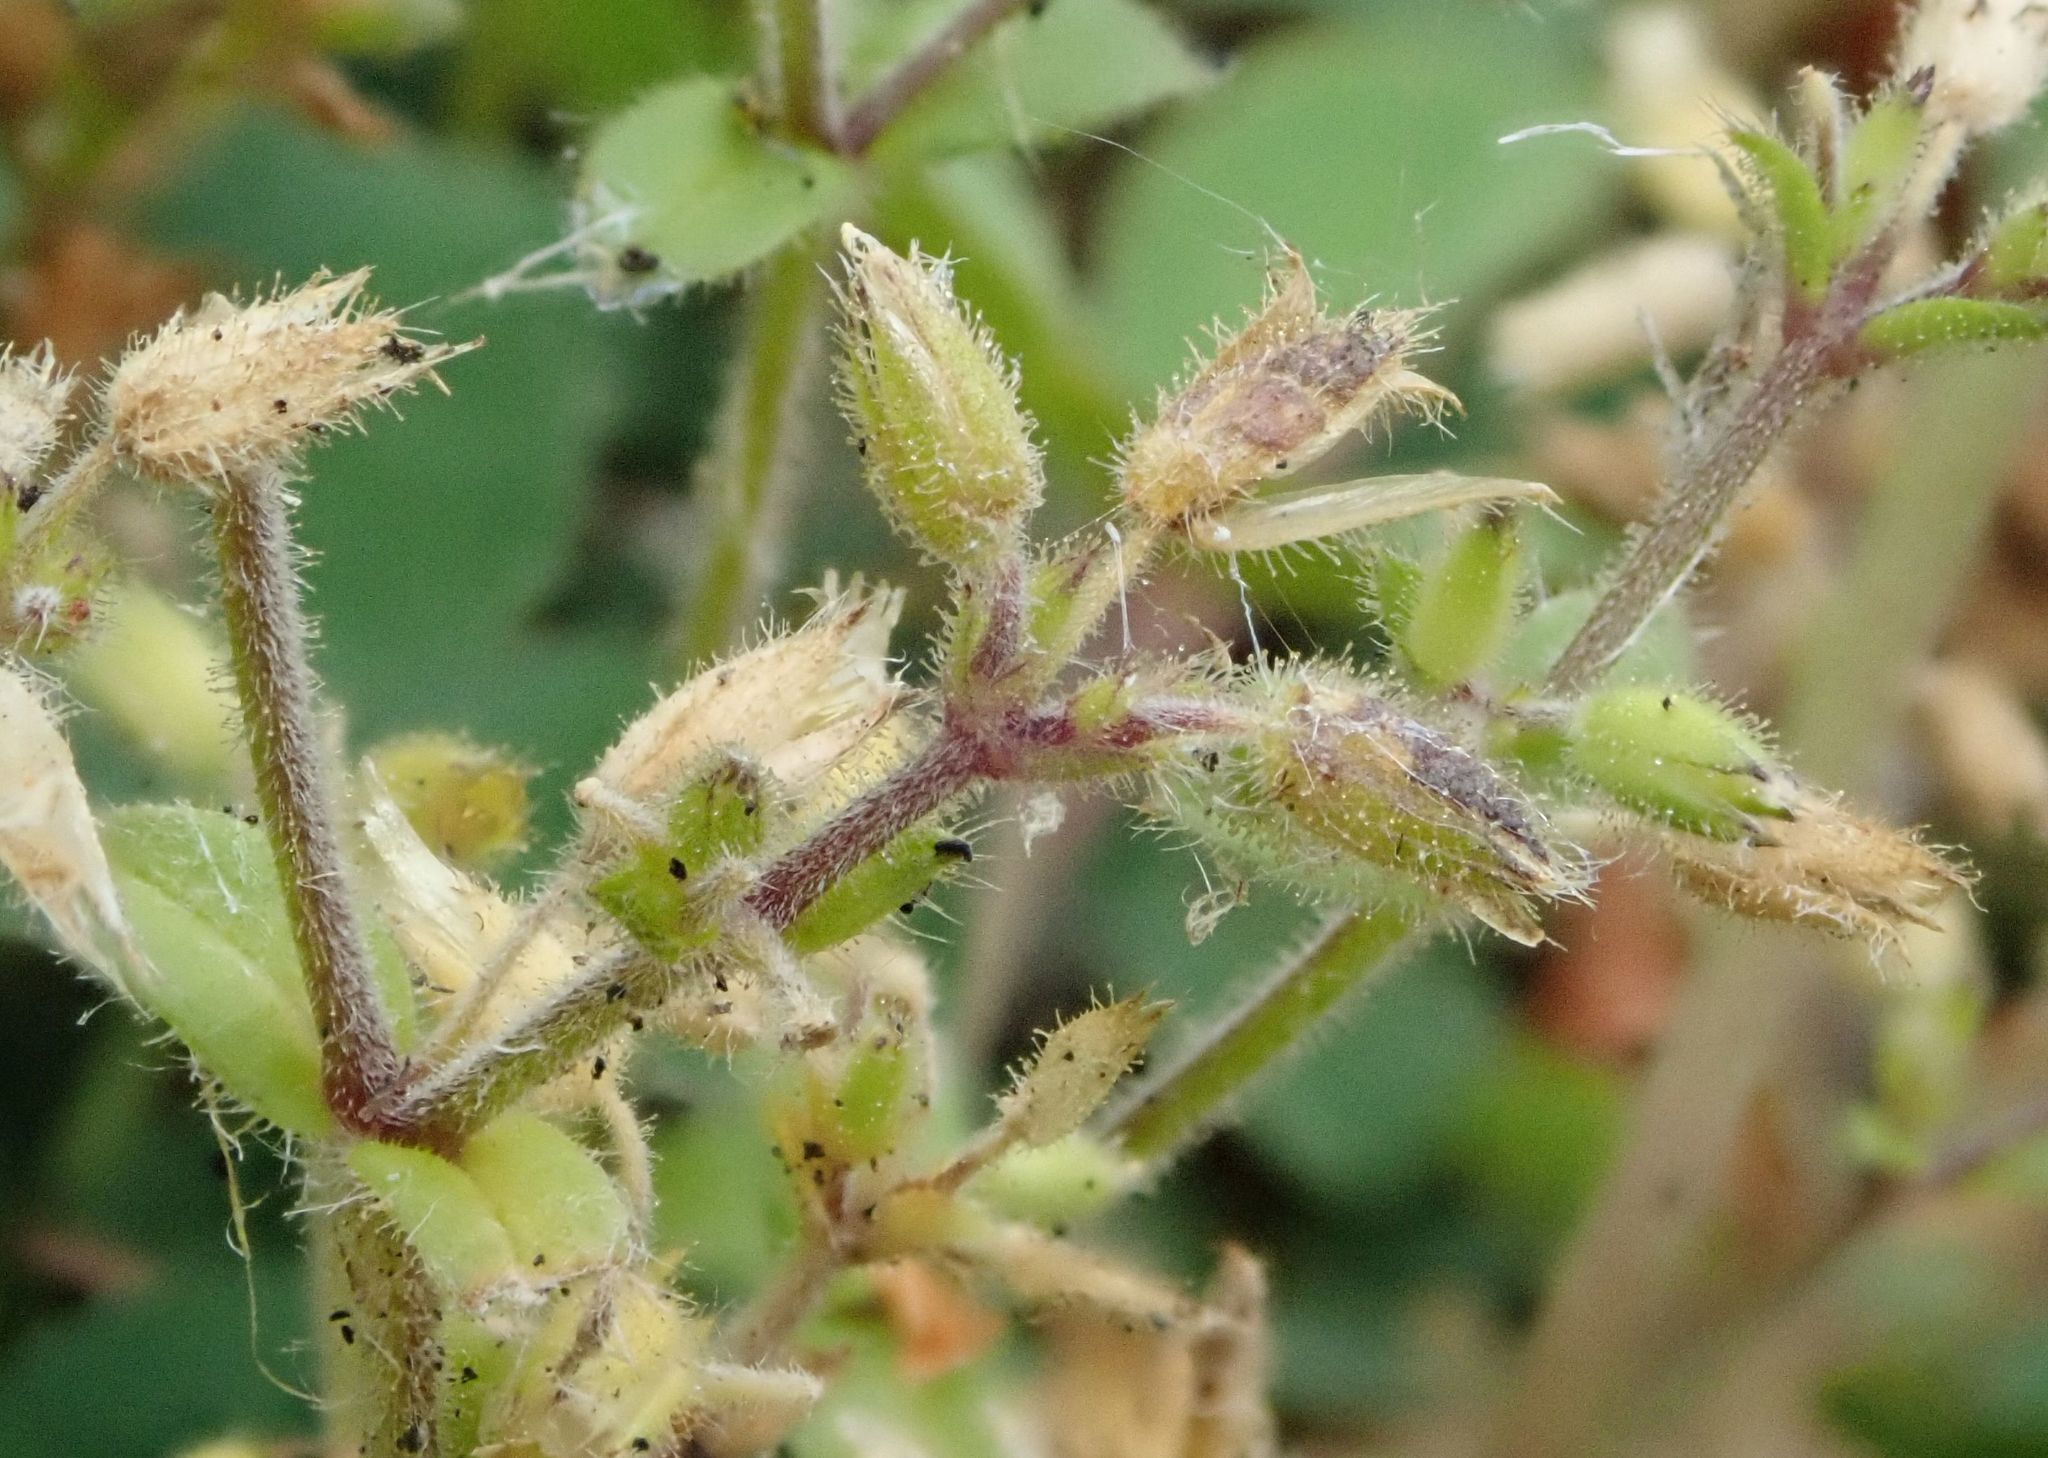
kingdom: Plantae
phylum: Tracheophyta
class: Magnoliopsida
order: Caryophyllales
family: Caryophyllaceae
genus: Cerastium
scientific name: Cerastium glomeratum
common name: Sticky chickweed
